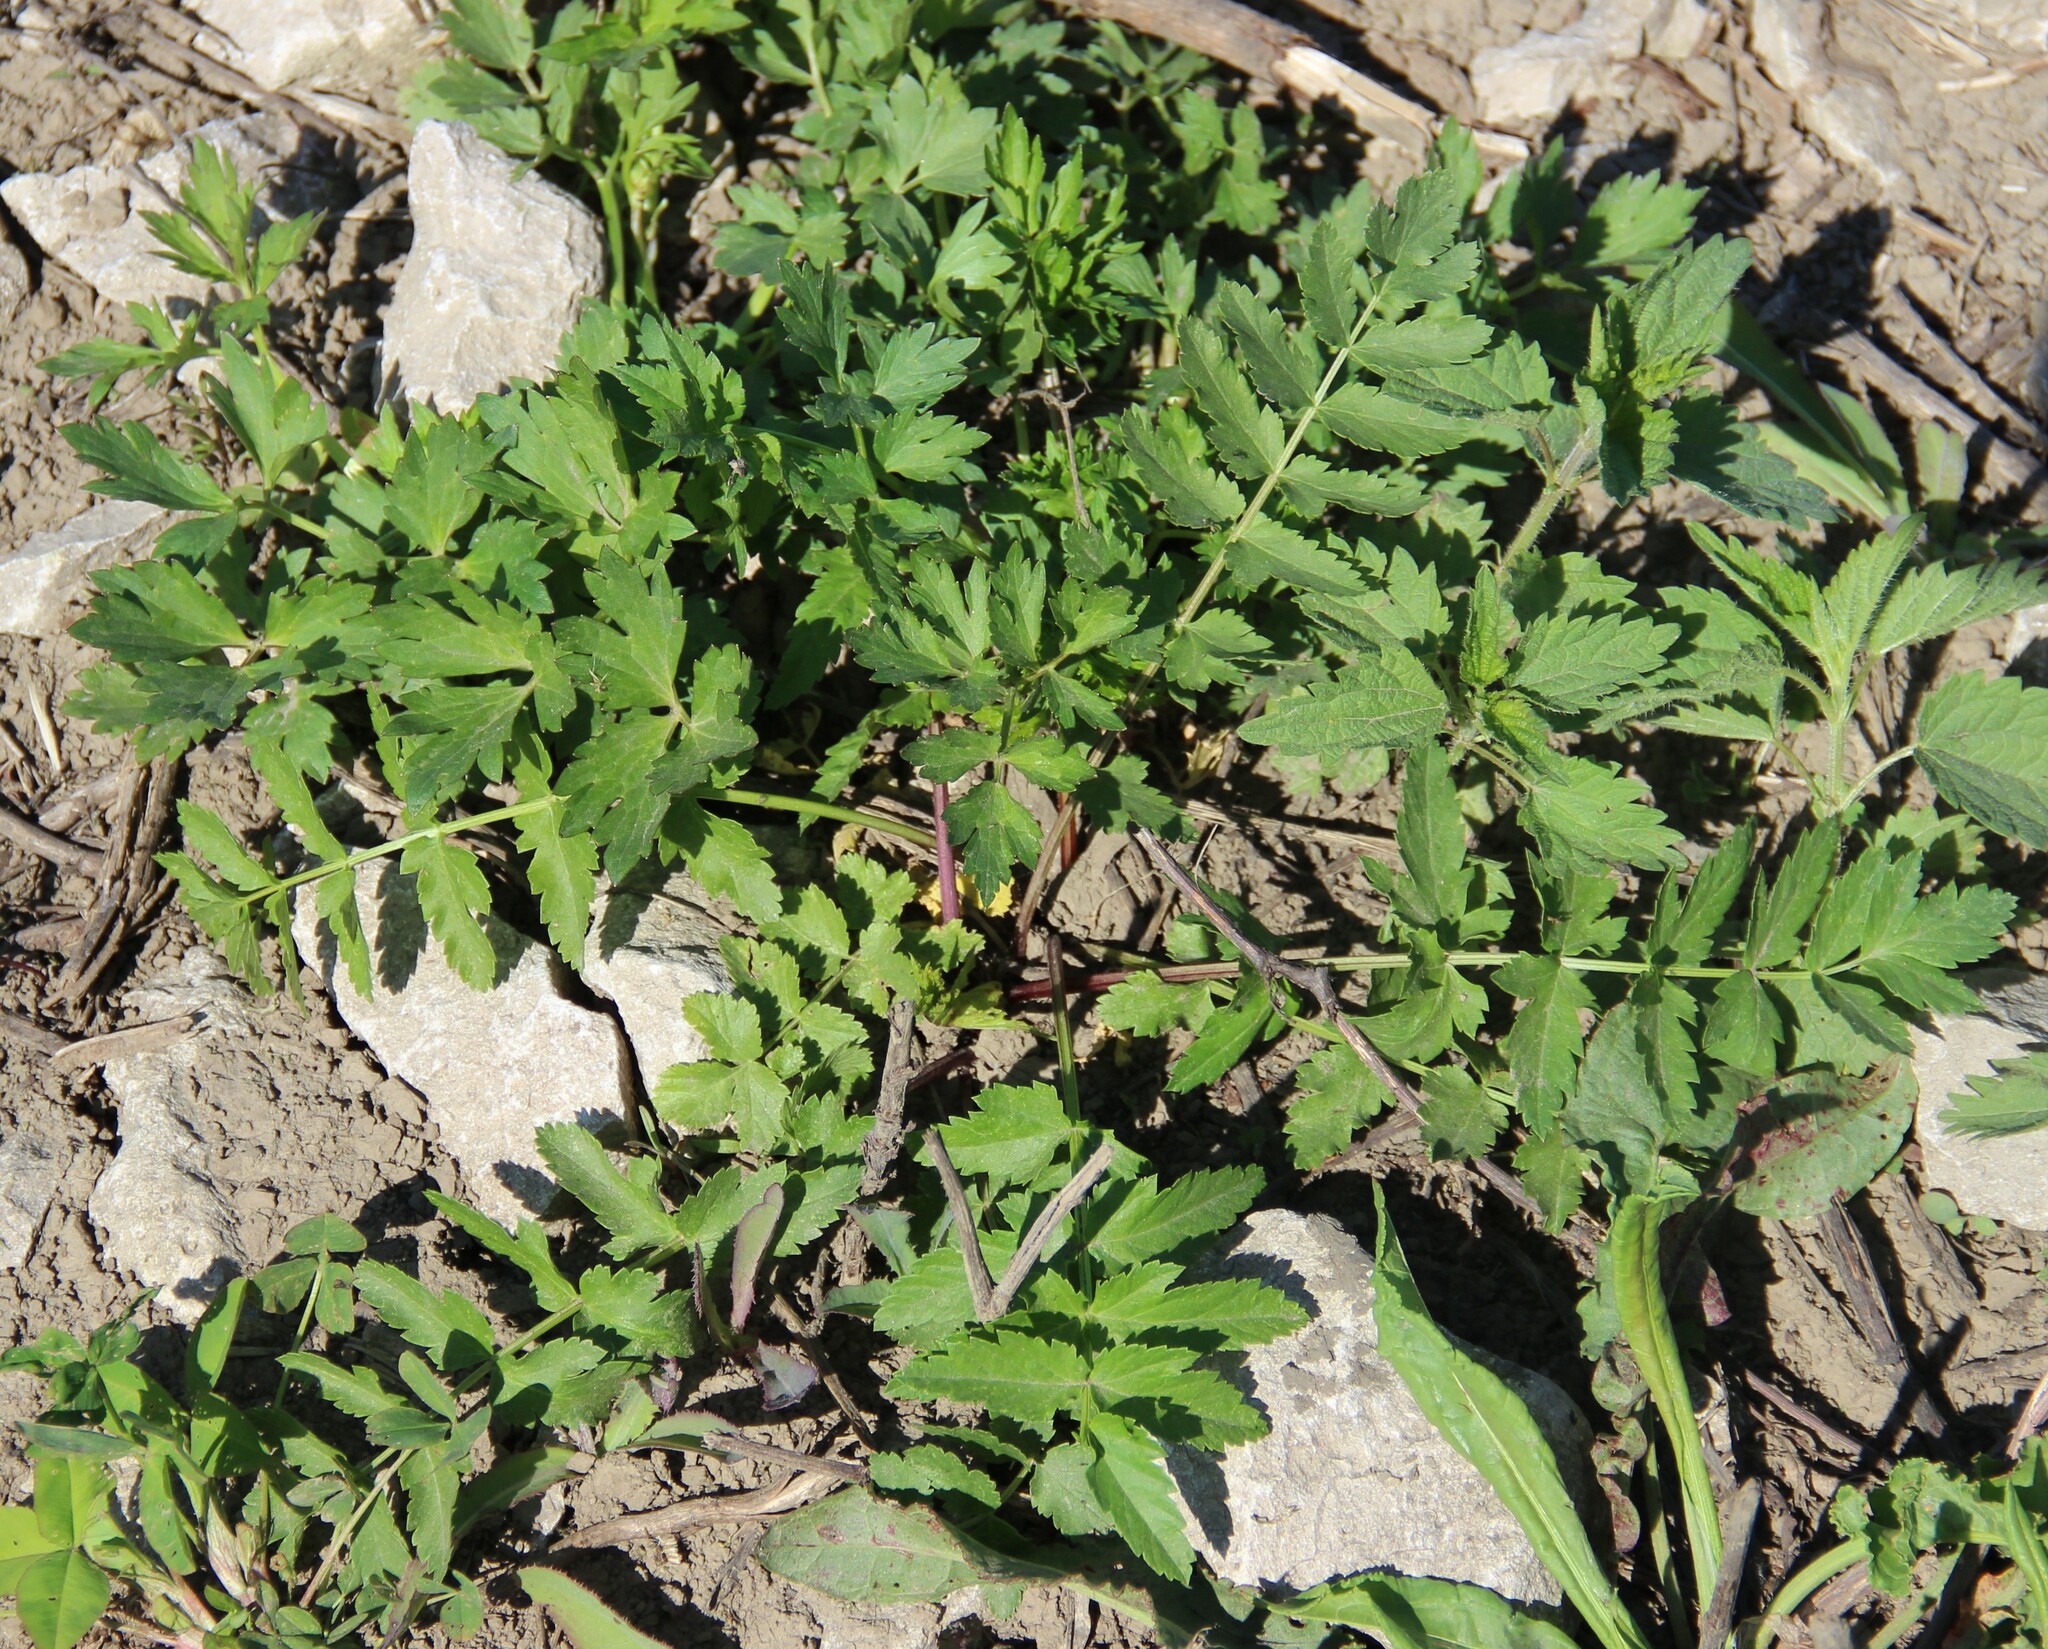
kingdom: Plantae
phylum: Tracheophyta
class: Magnoliopsida
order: Apiales
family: Apiaceae
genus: Pastinaca
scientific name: Pastinaca sativa
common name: Wild parsnip
